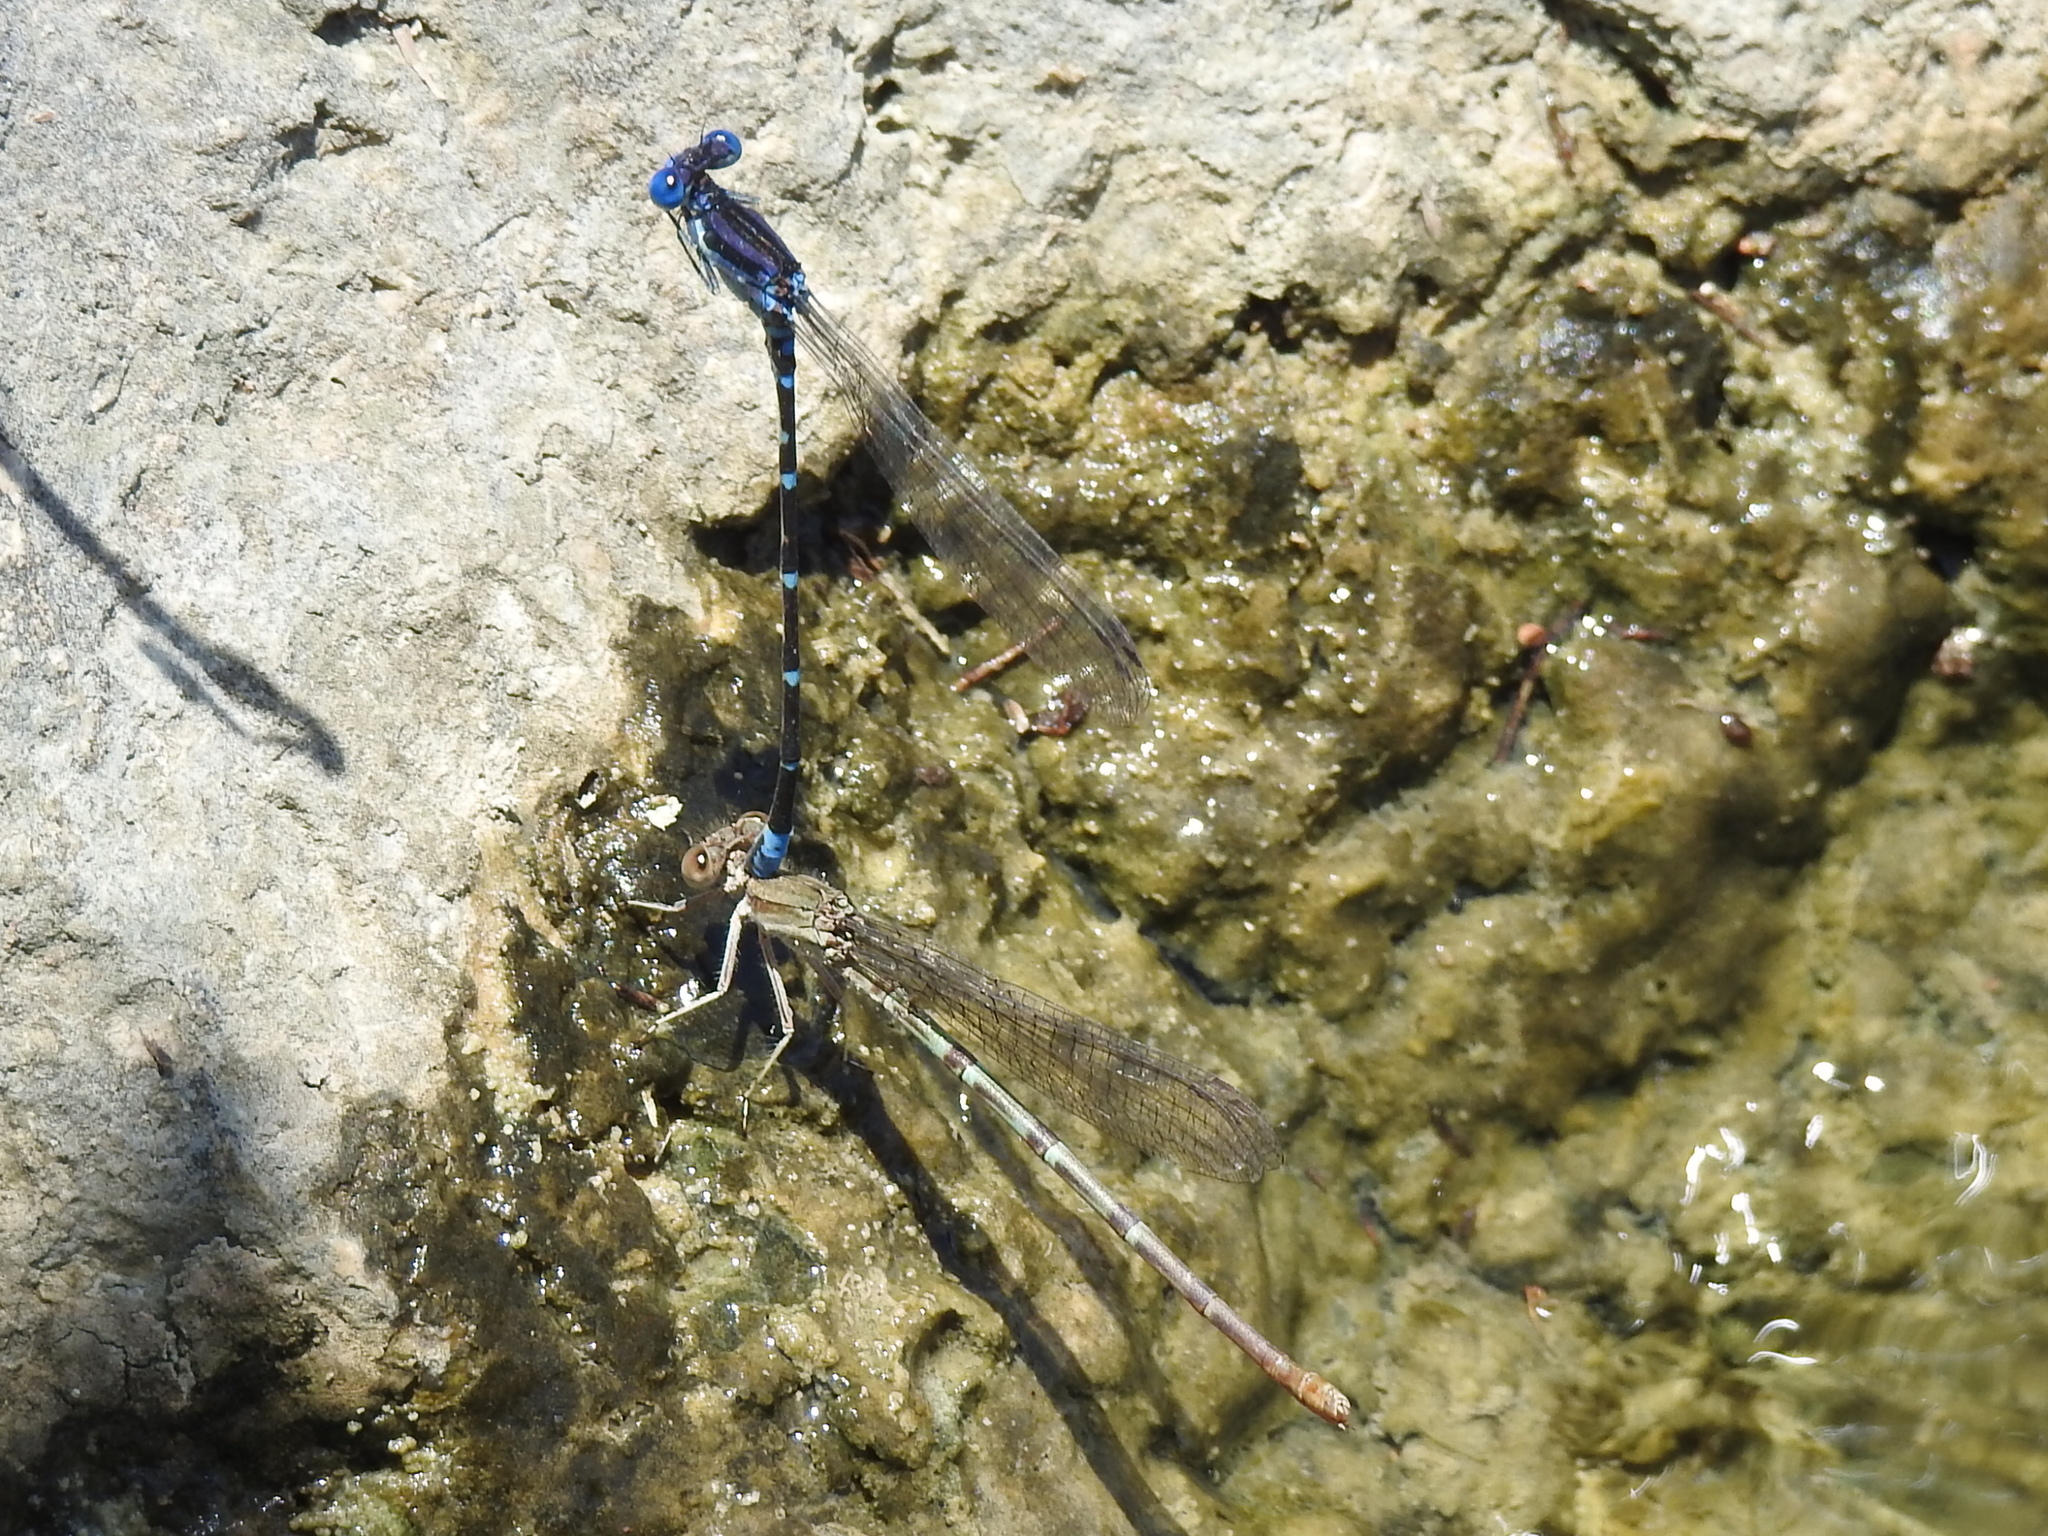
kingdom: Animalia
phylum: Arthropoda
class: Insecta
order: Odonata
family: Coenagrionidae
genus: Argia
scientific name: Argia sedula
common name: Blue-ringed dancer
